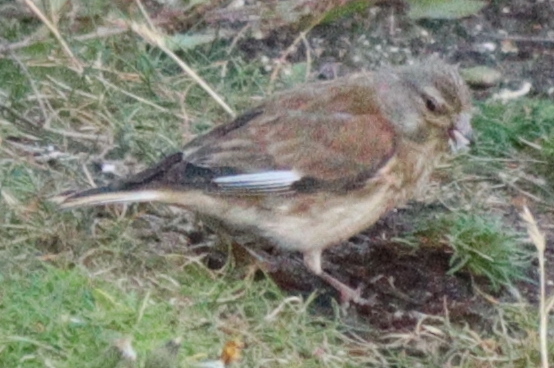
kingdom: Animalia
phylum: Chordata
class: Aves
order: Passeriformes
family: Fringillidae
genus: Linaria
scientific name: Linaria cannabina
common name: Common linnet
